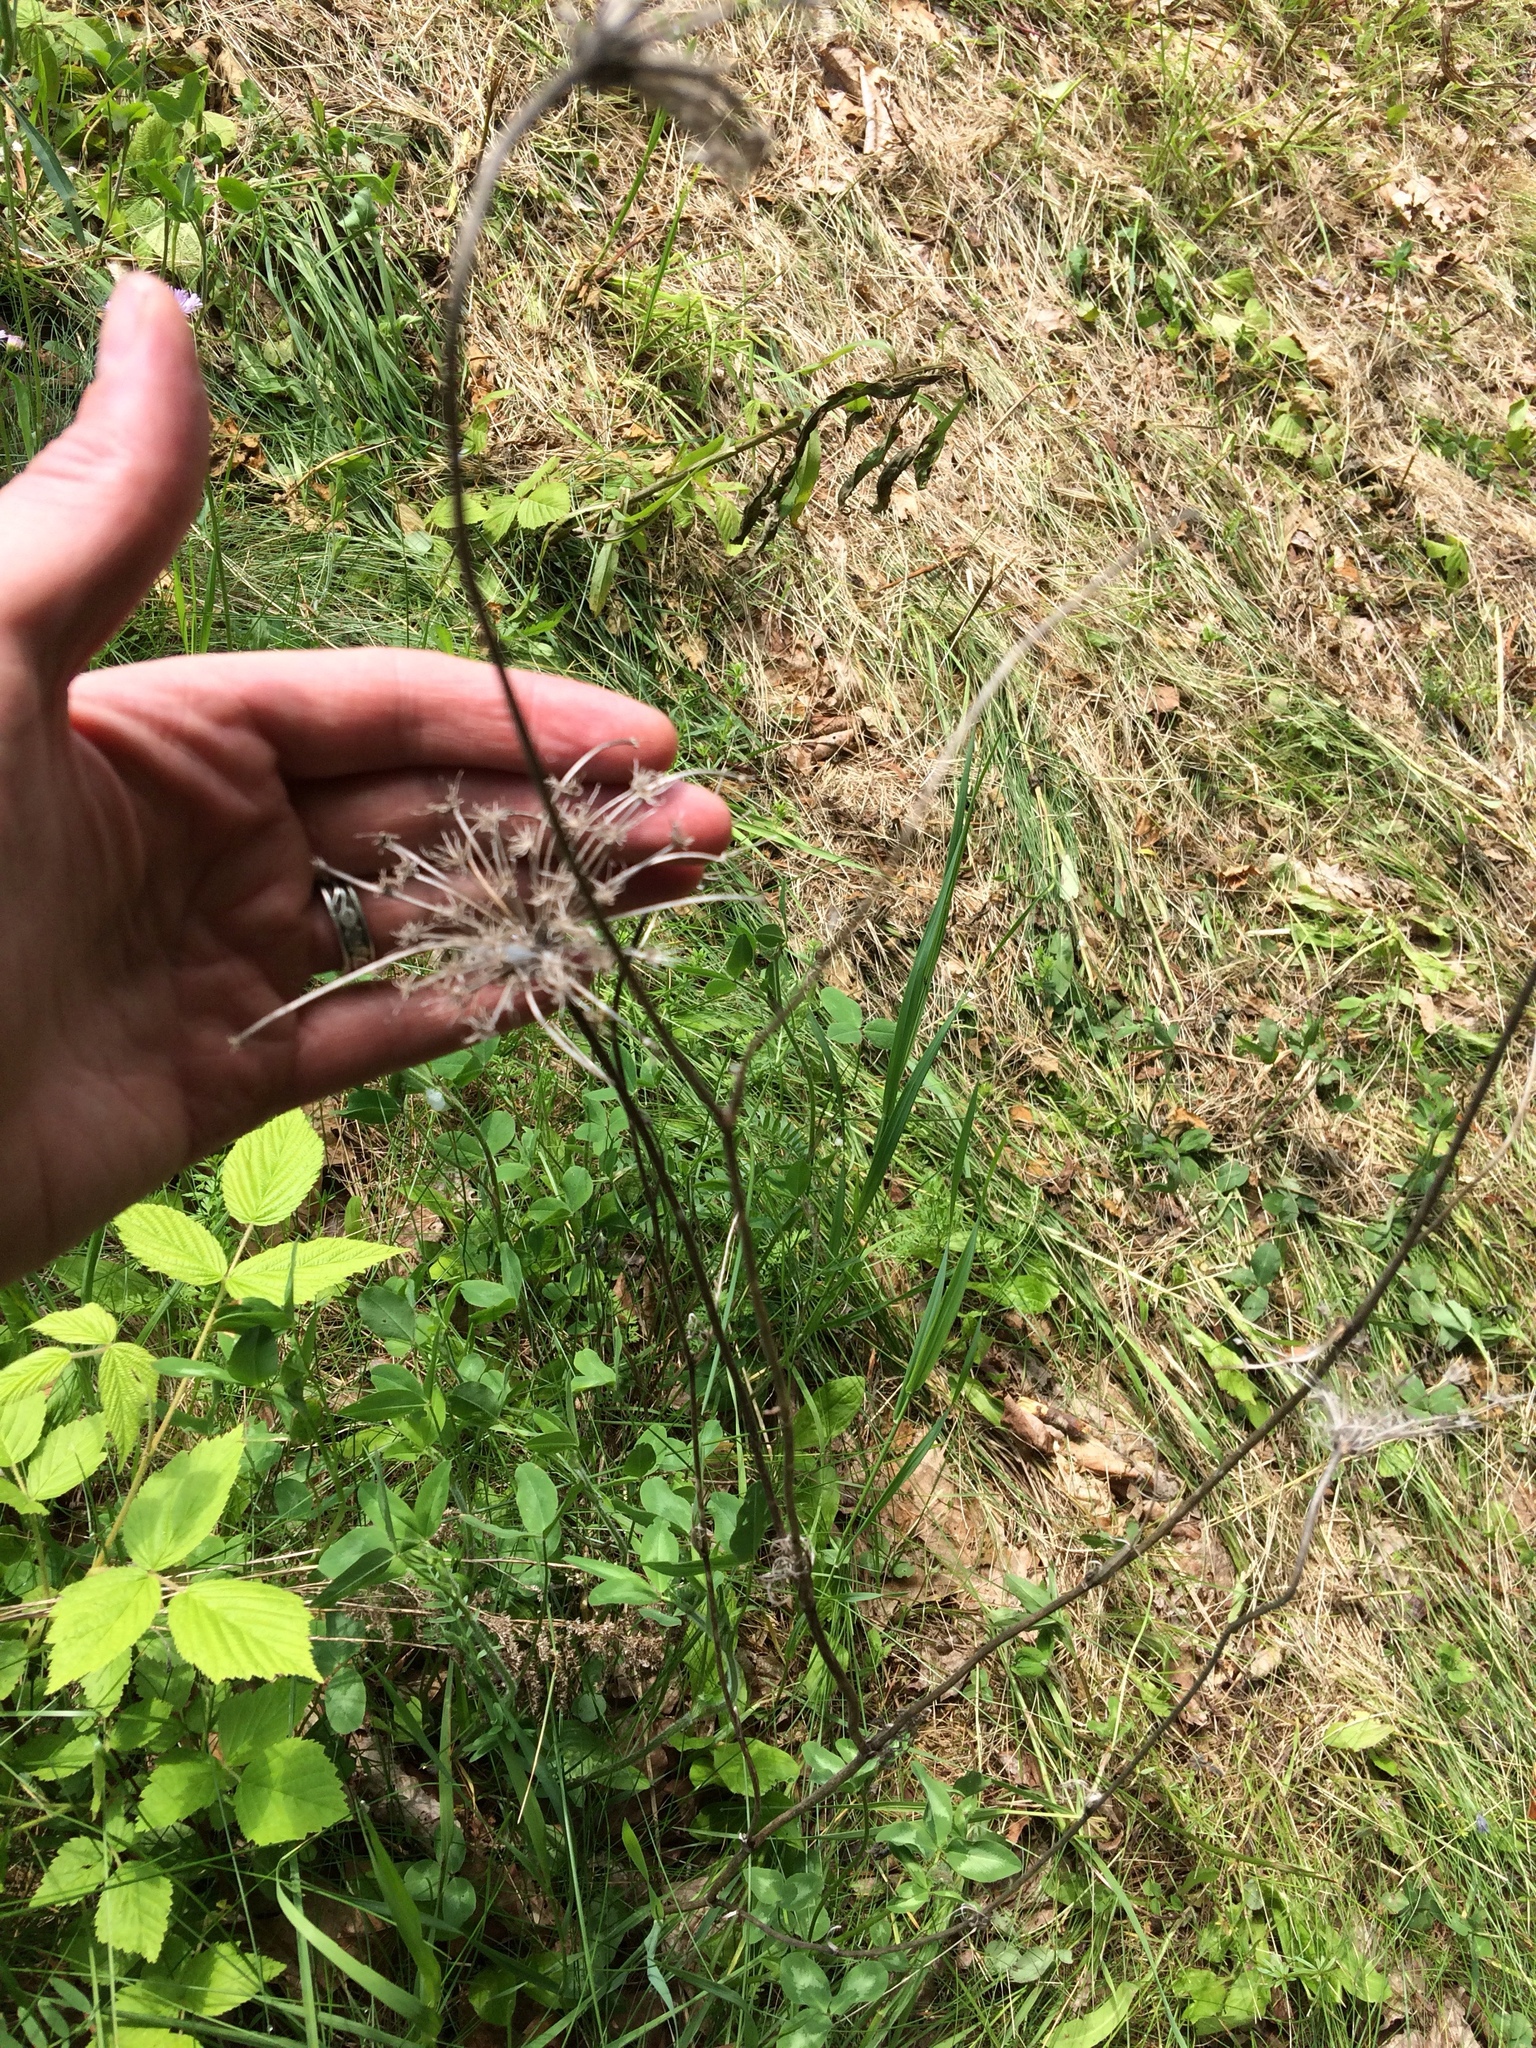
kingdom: Plantae
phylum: Tracheophyta
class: Magnoliopsida
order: Apiales
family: Apiaceae
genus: Daucus
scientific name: Daucus carota
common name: Wild carrot
